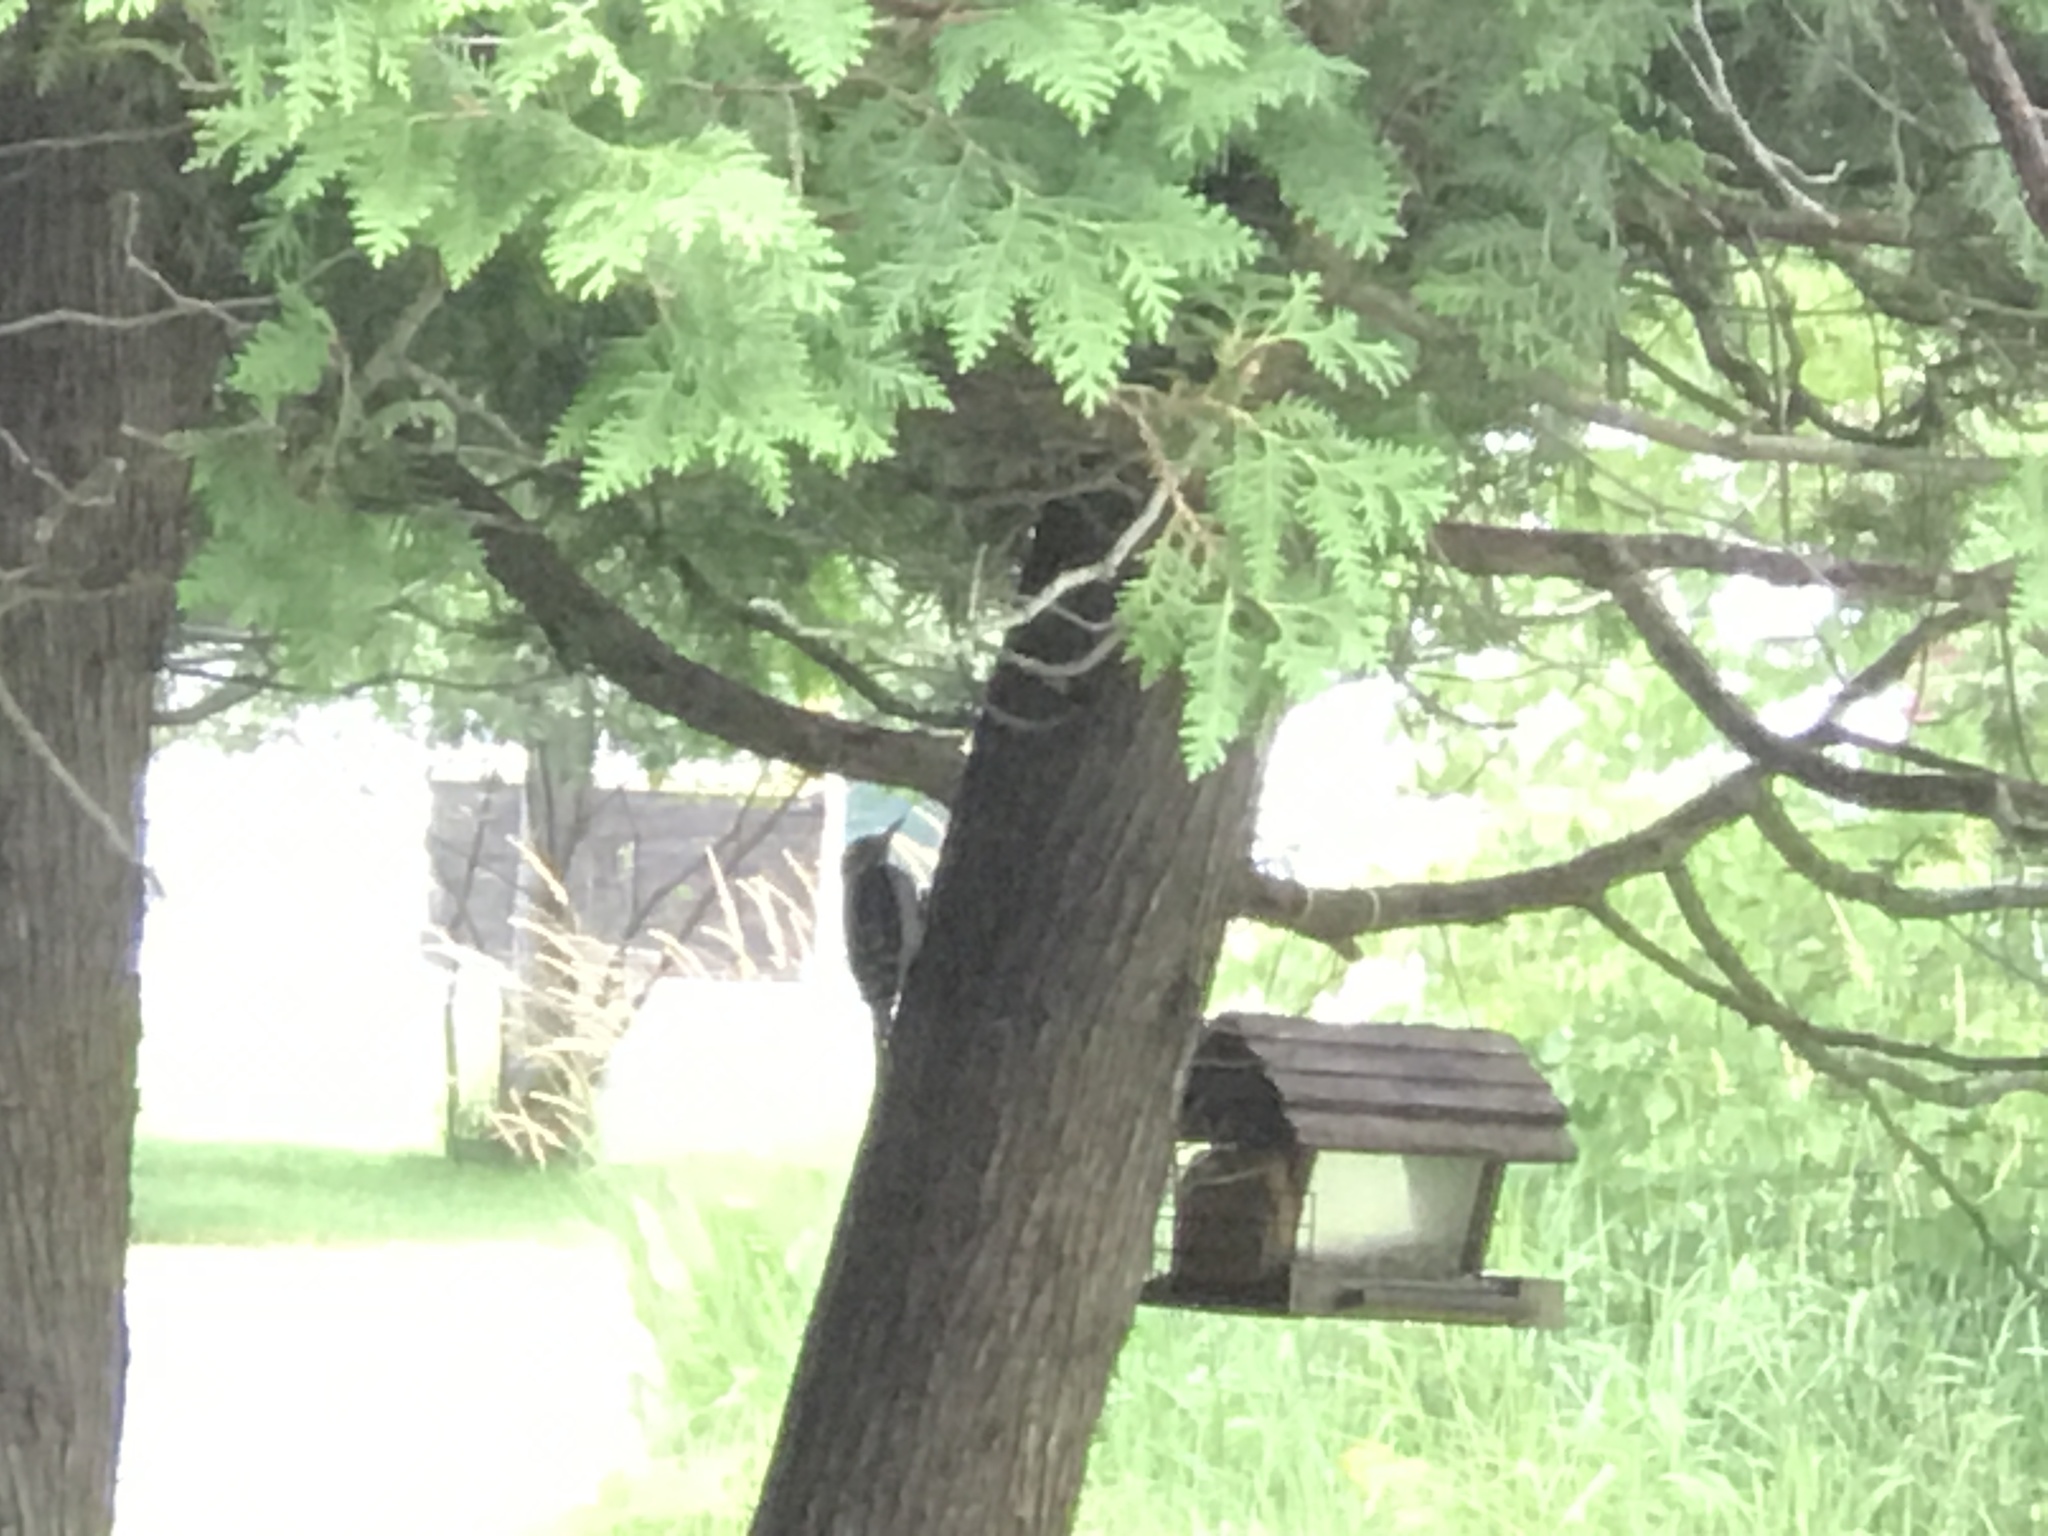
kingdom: Animalia
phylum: Chordata
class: Aves
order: Piciformes
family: Picidae
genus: Leuconotopicus
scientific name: Leuconotopicus villosus
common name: Hairy woodpecker
